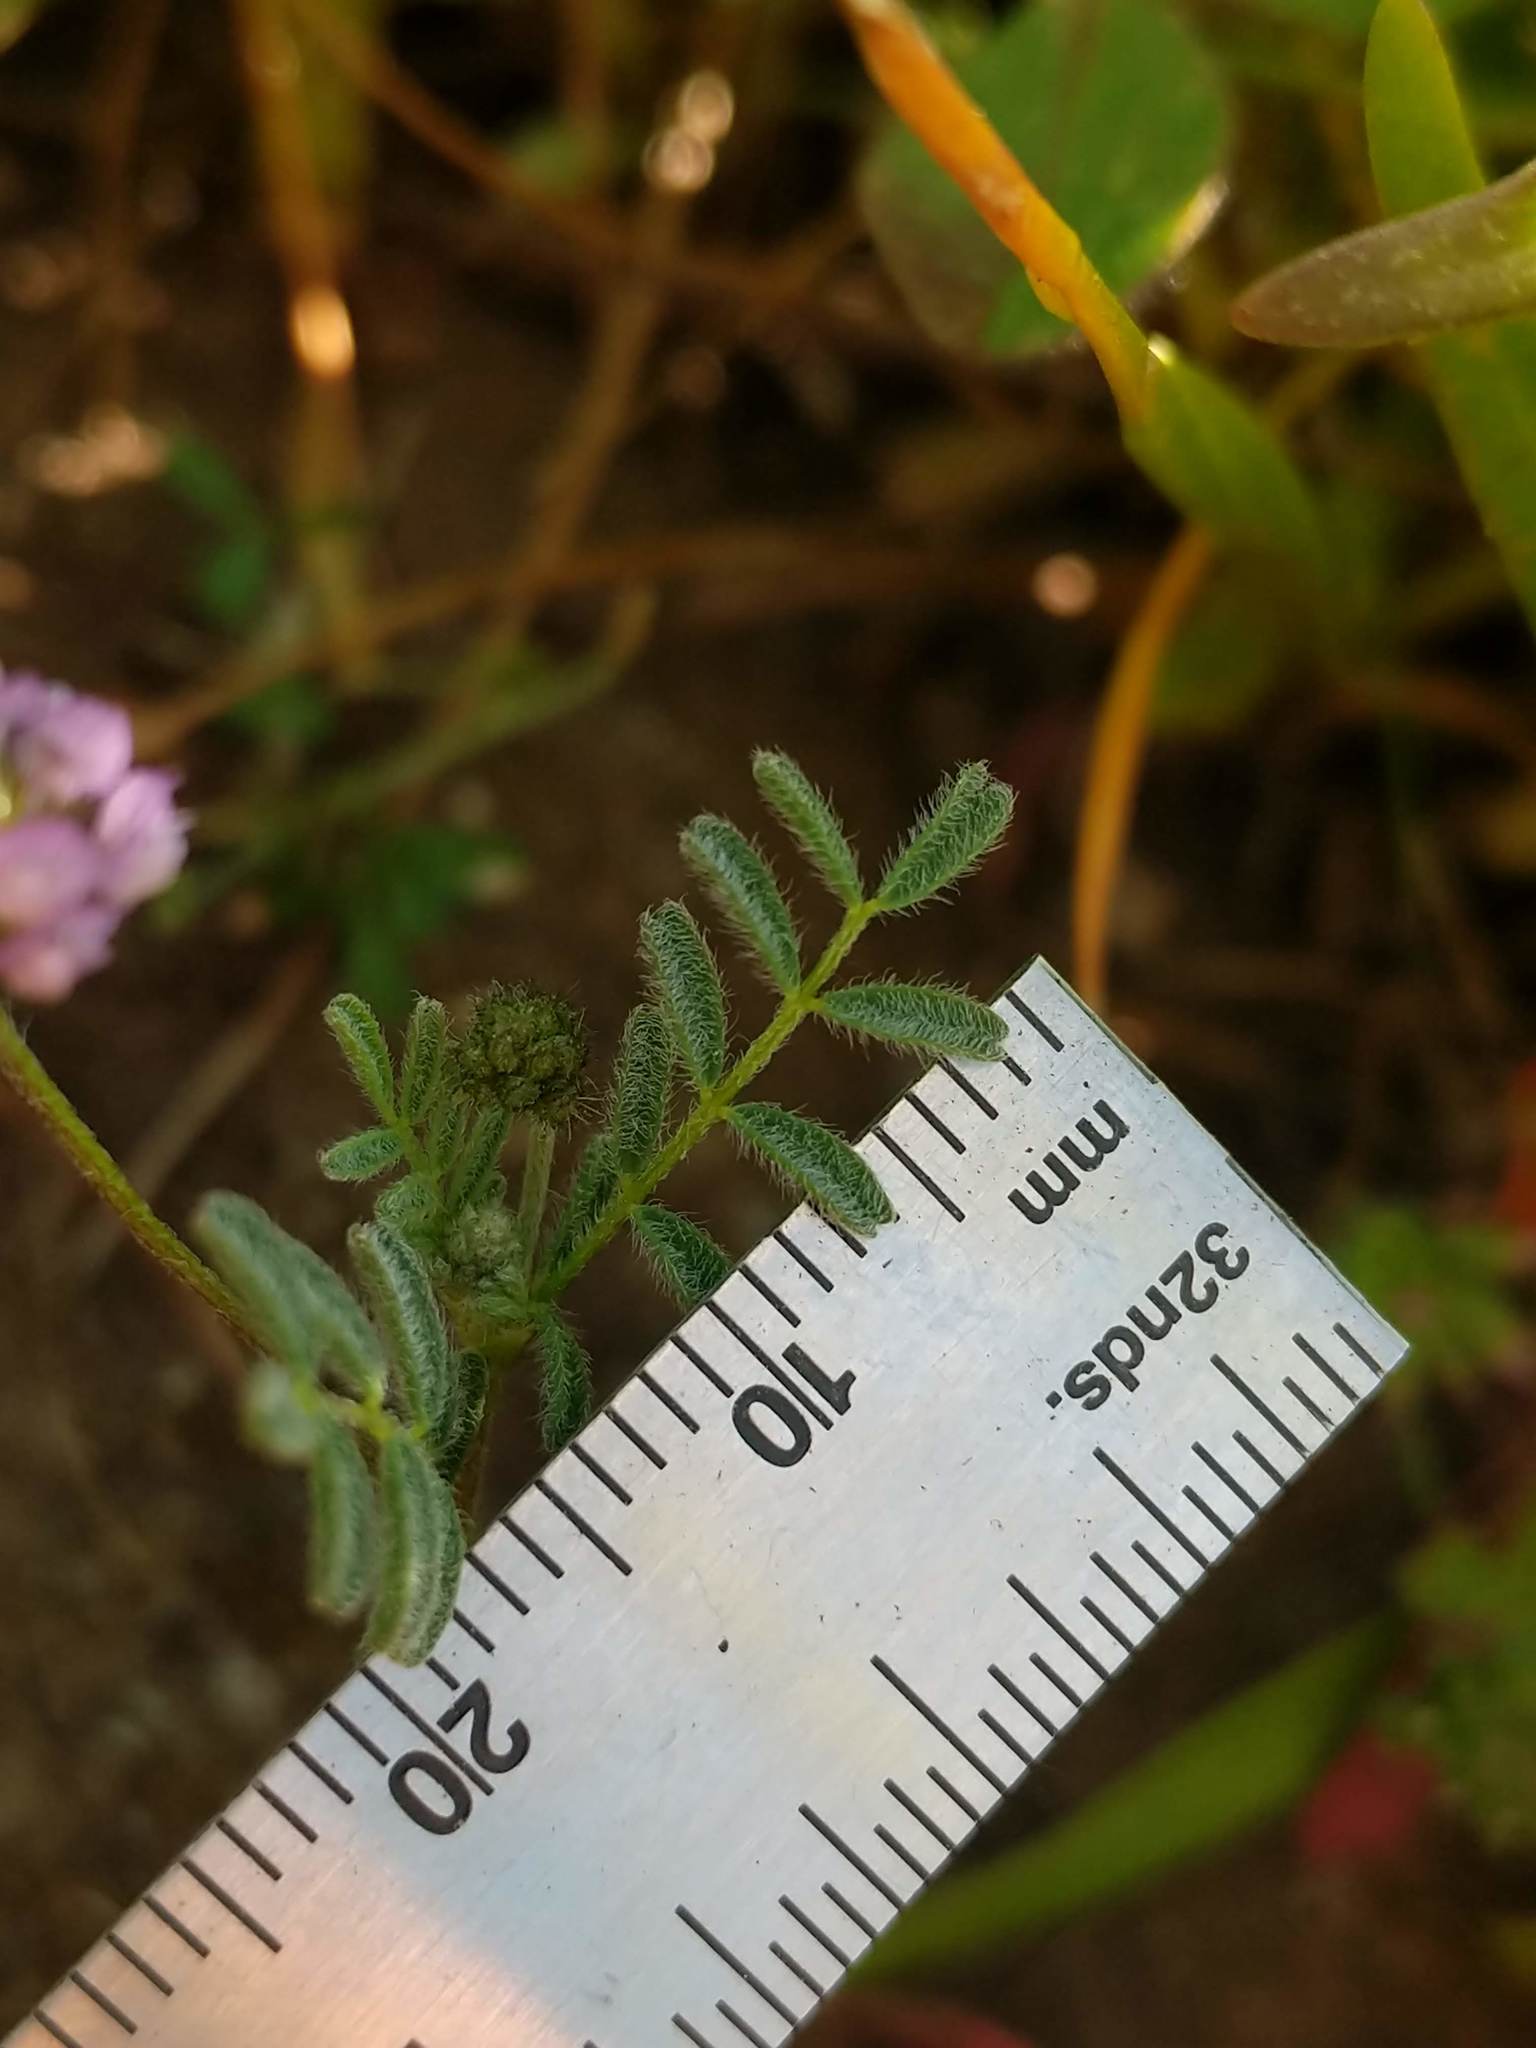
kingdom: Plantae
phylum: Tracheophyta
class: Magnoliopsida
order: Fabales
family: Fabaceae
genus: Astragalus
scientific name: Astragalus gambelianus
